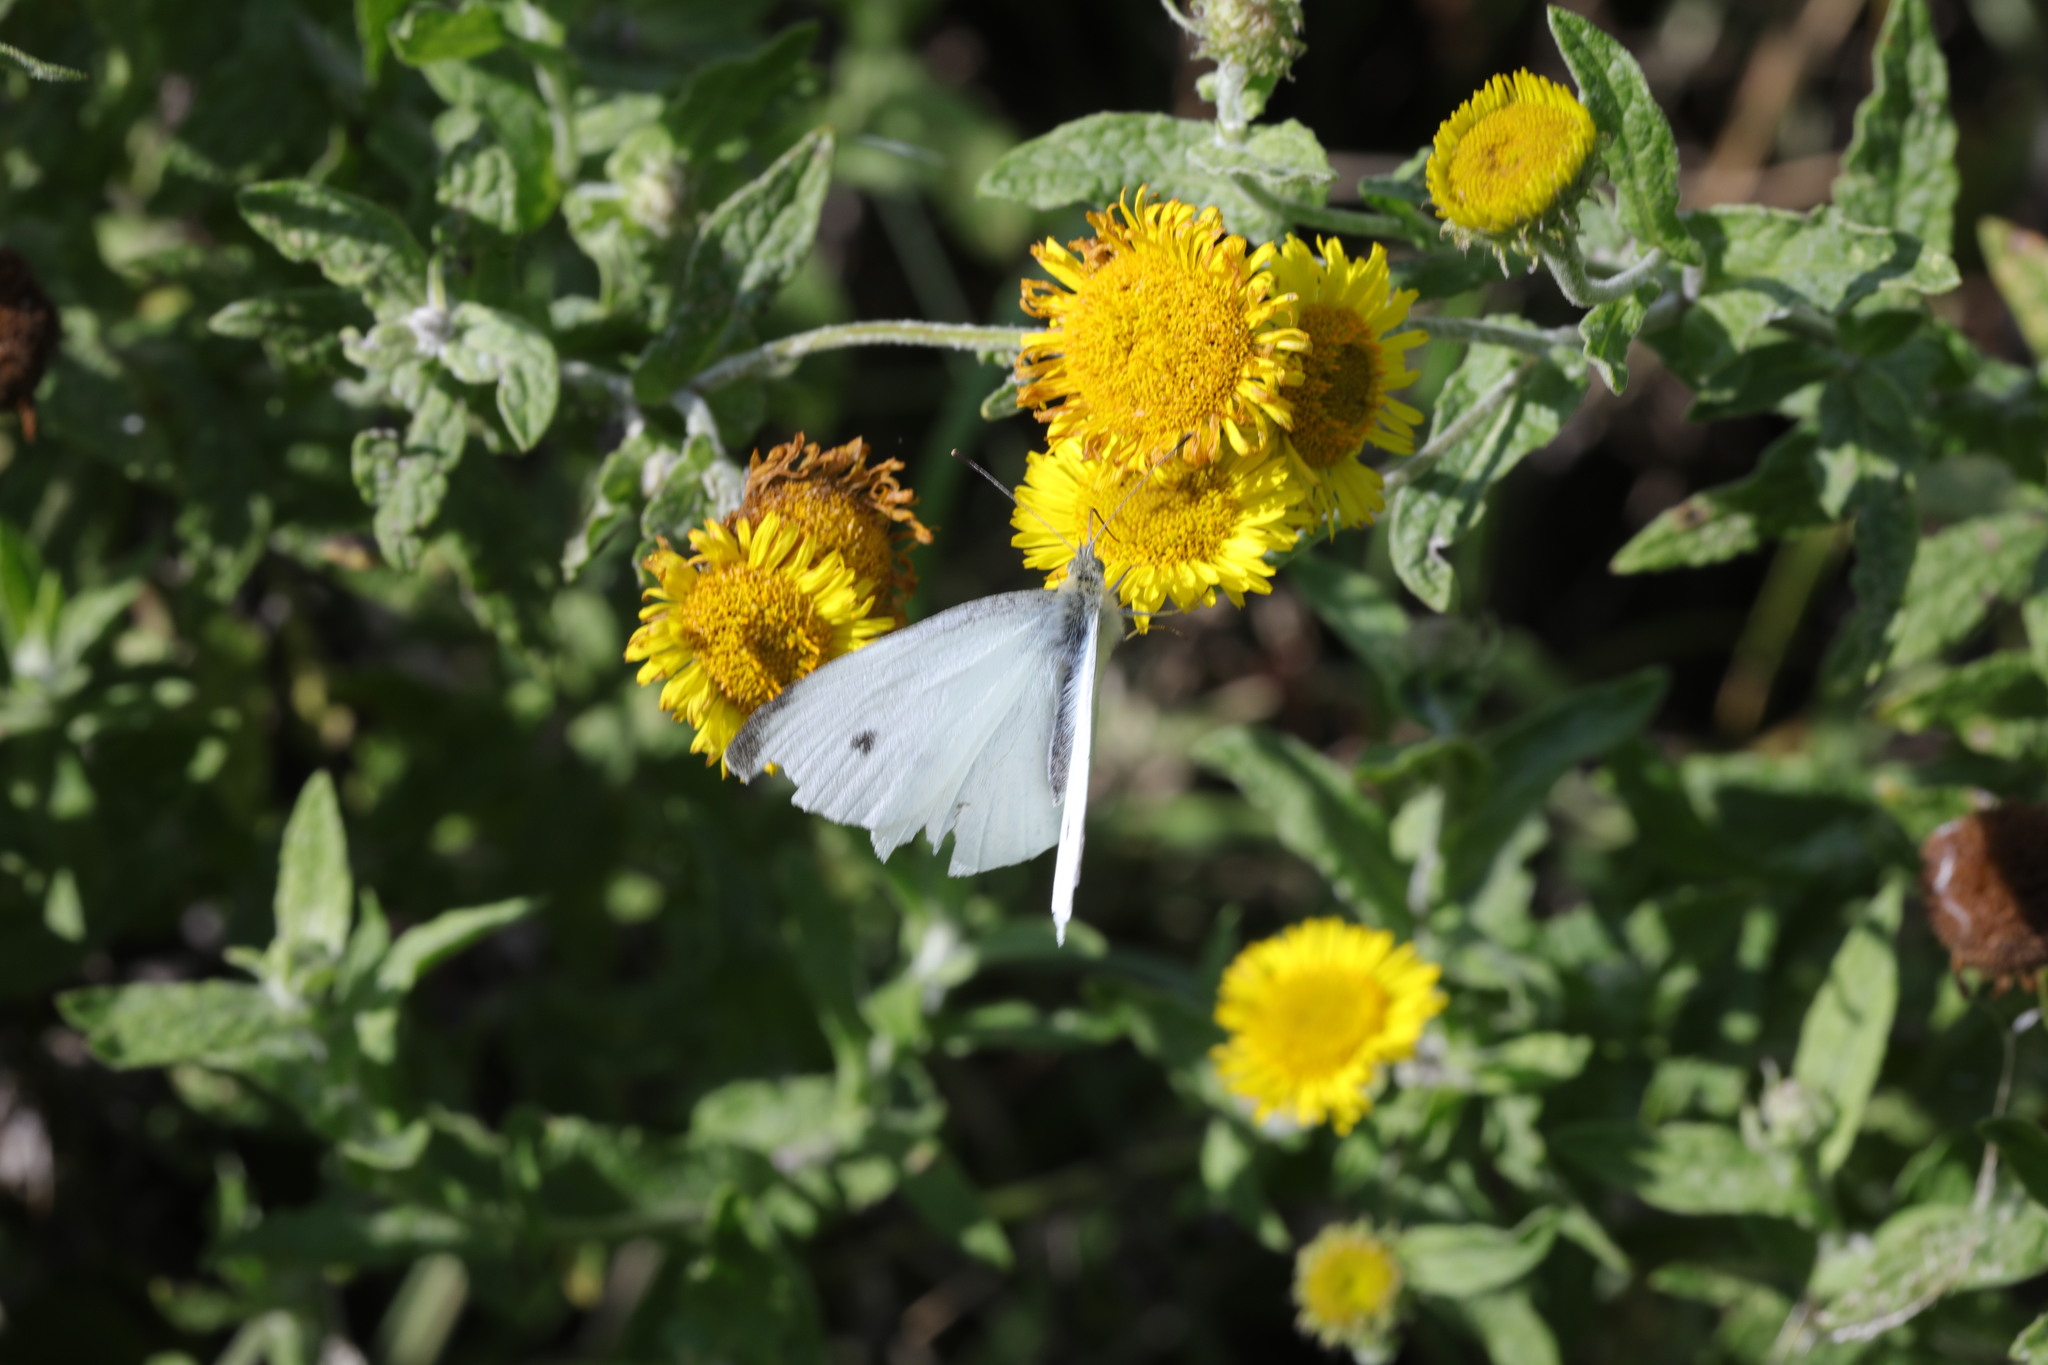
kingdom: Animalia
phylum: Arthropoda
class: Insecta
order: Lepidoptera
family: Pieridae
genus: Pieris
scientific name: Pieris rapae
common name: Small white
